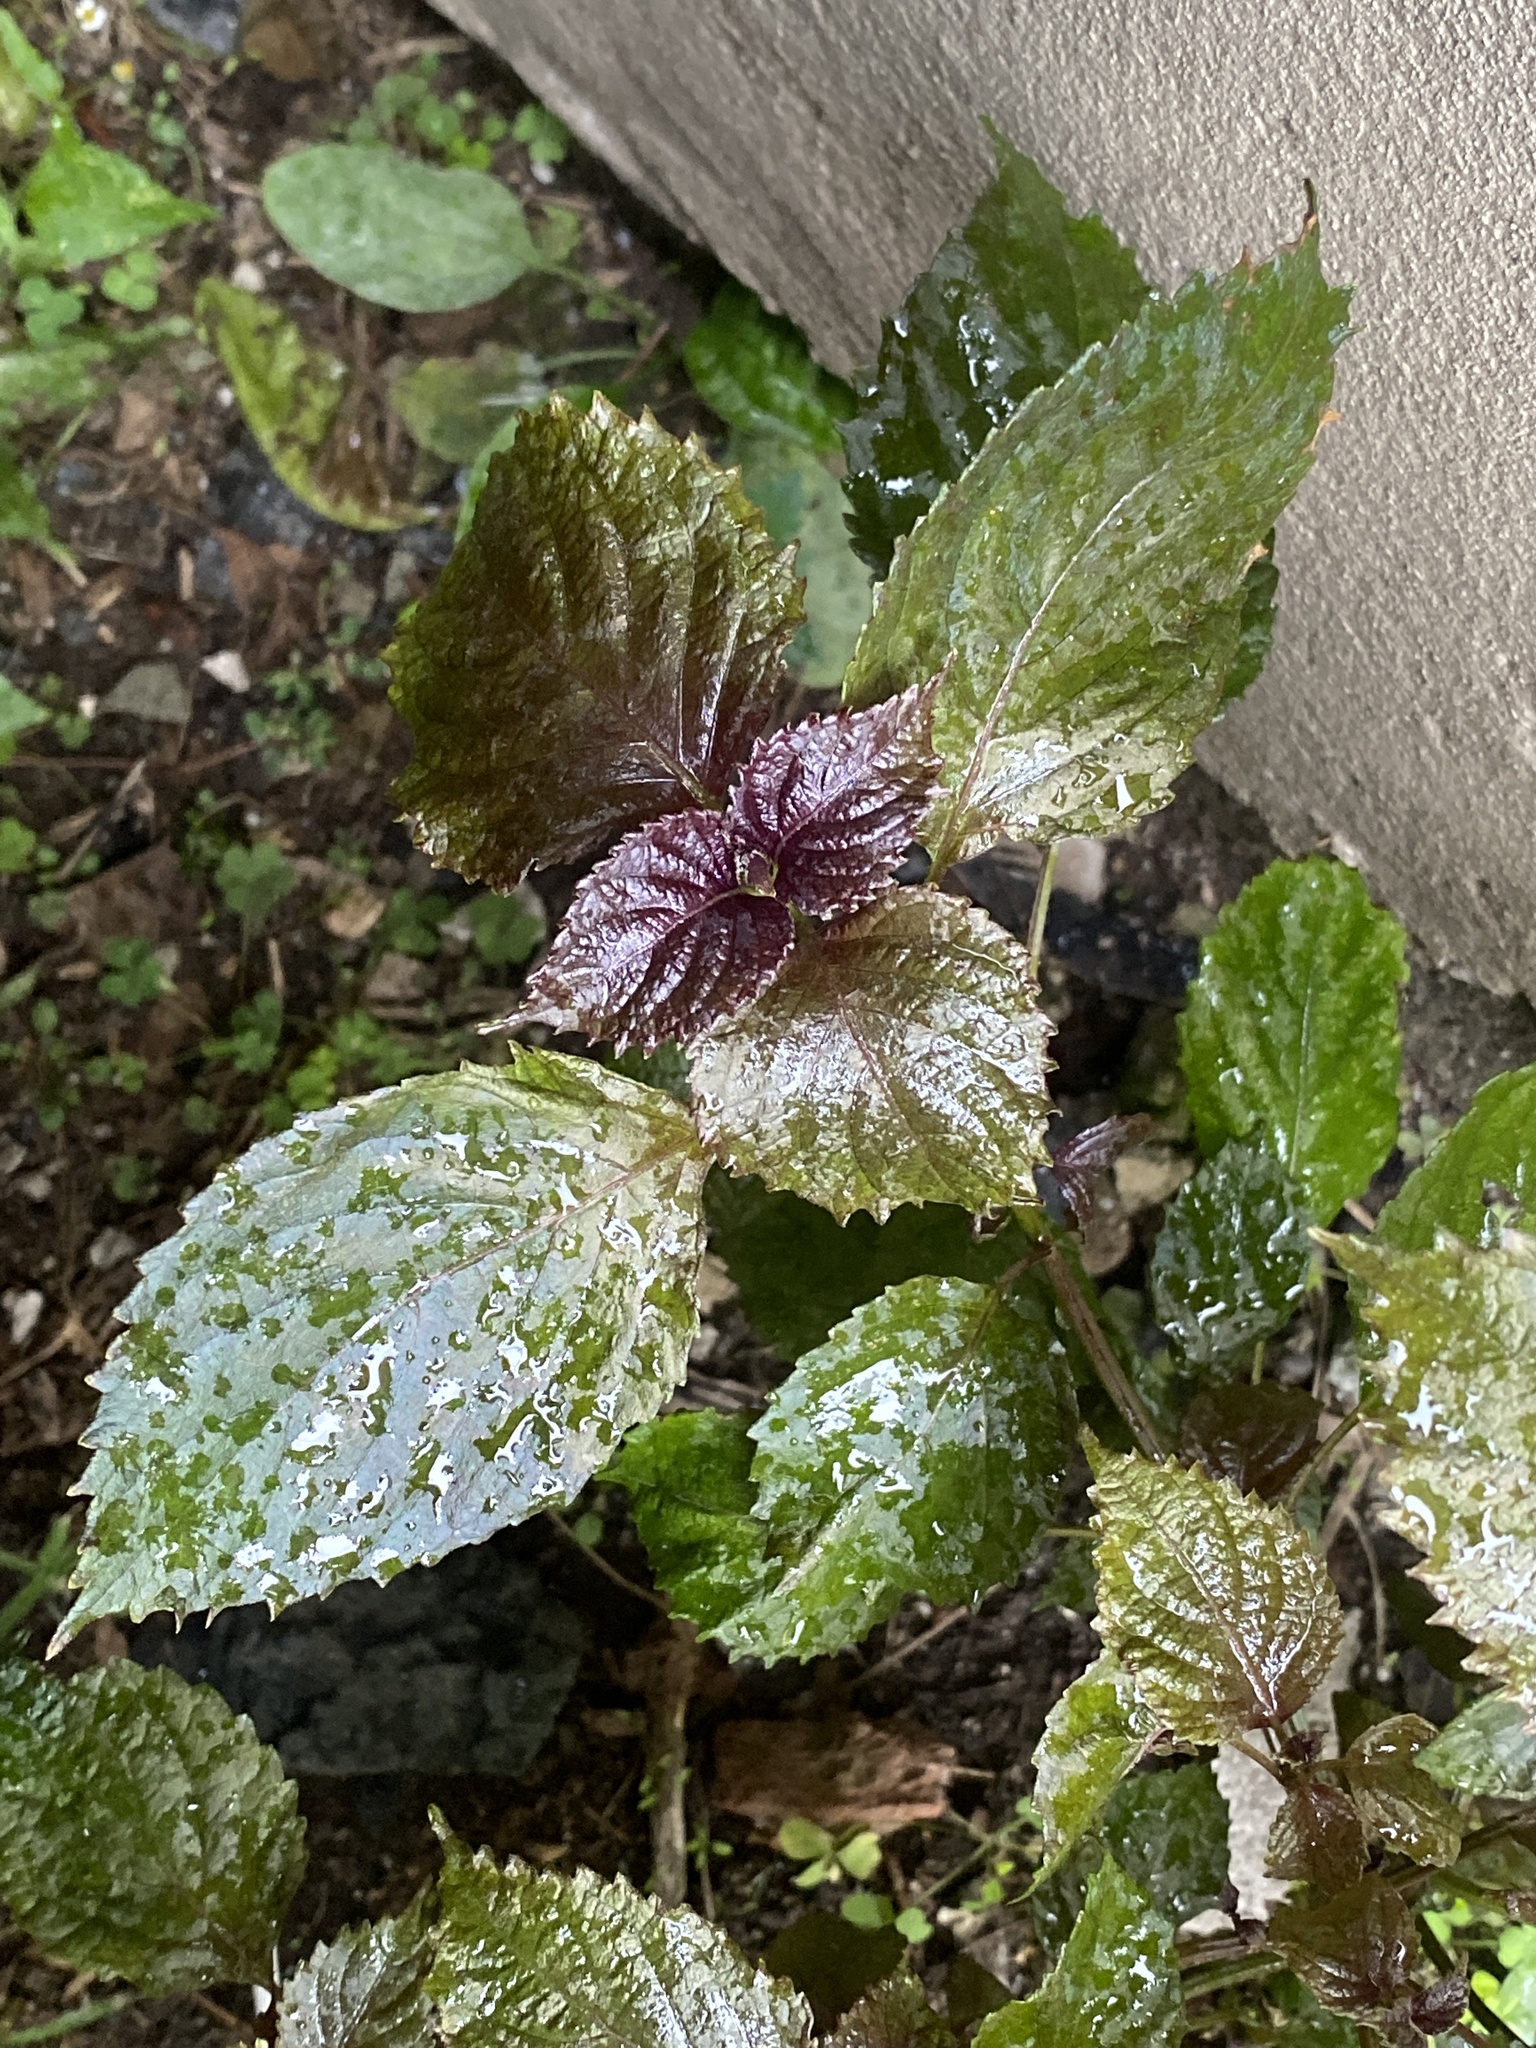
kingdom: Plantae
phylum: Tracheophyta
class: Magnoliopsida
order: Lamiales
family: Lamiaceae
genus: Perilla
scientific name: Perilla frutescens
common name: Perilla
